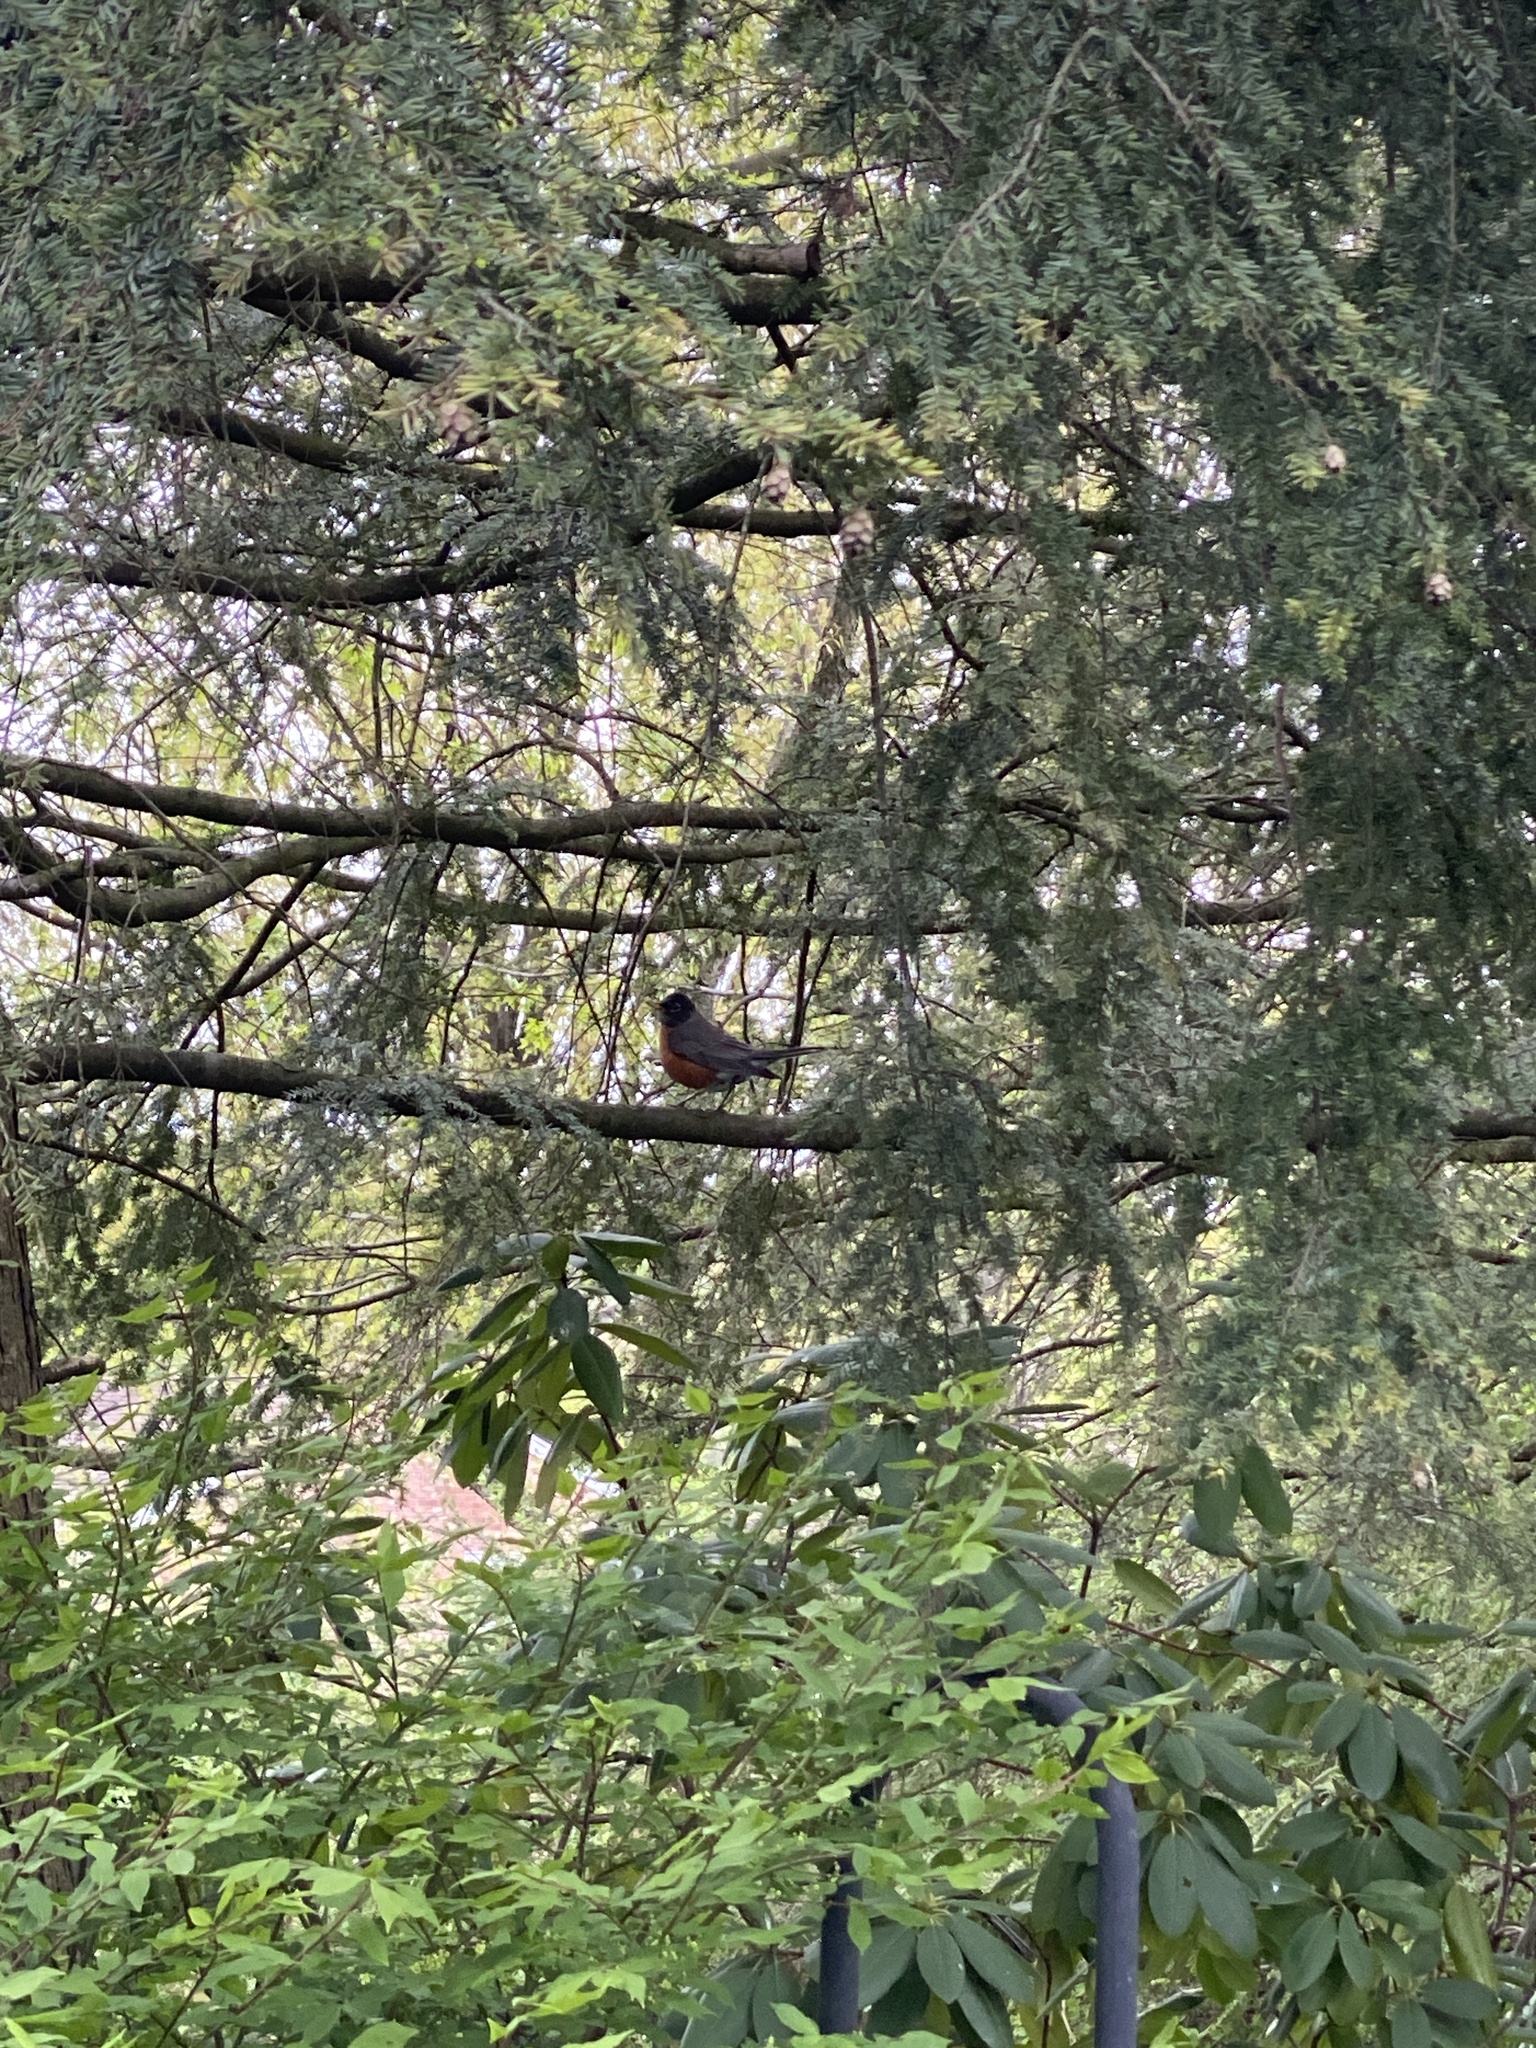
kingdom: Animalia
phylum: Chordata
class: Aves
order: Passeriformes
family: Turdidae
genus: Turdus
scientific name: Turdus migratorius
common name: American robin
